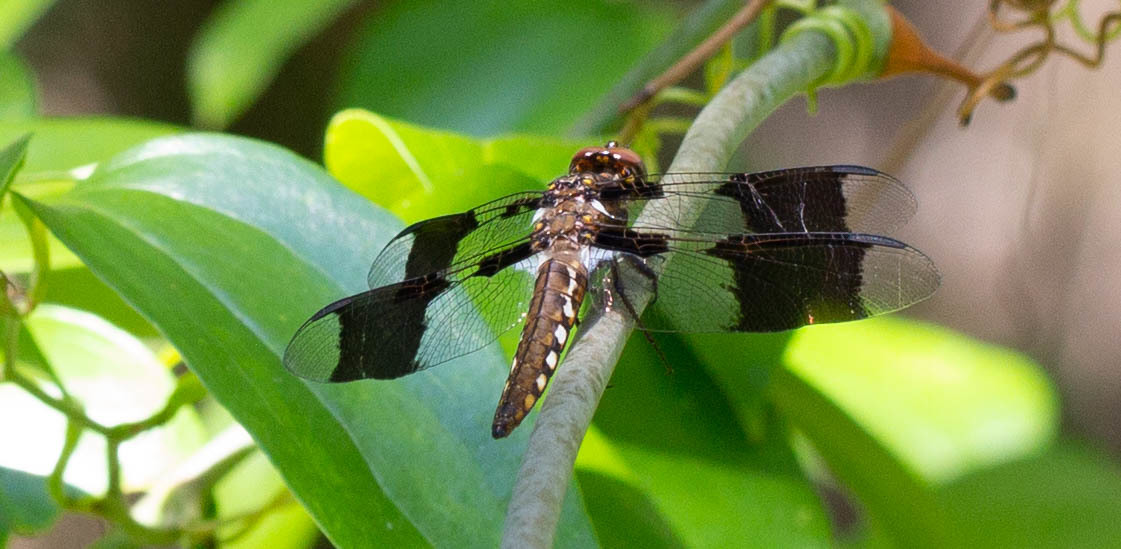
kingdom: Animalia
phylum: Arthropoda
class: Insecta
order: Odonata
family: Libellulidae
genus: Plathemis
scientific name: Plathemis lydia
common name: Common whitetail
